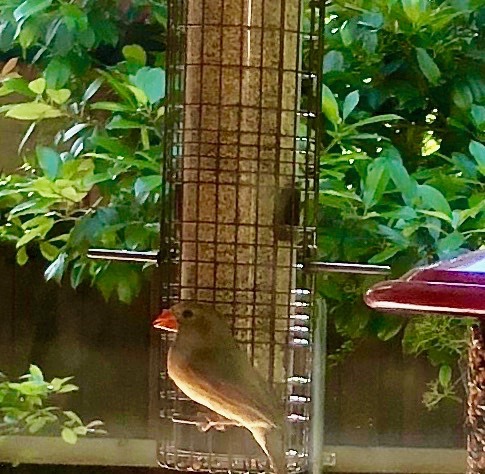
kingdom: Animalia
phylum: Chordata
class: Aves
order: Passeriformes
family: Cardinalidae
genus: Cardinalis
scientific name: Cardinalis cardinalis
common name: Northern cardinal
